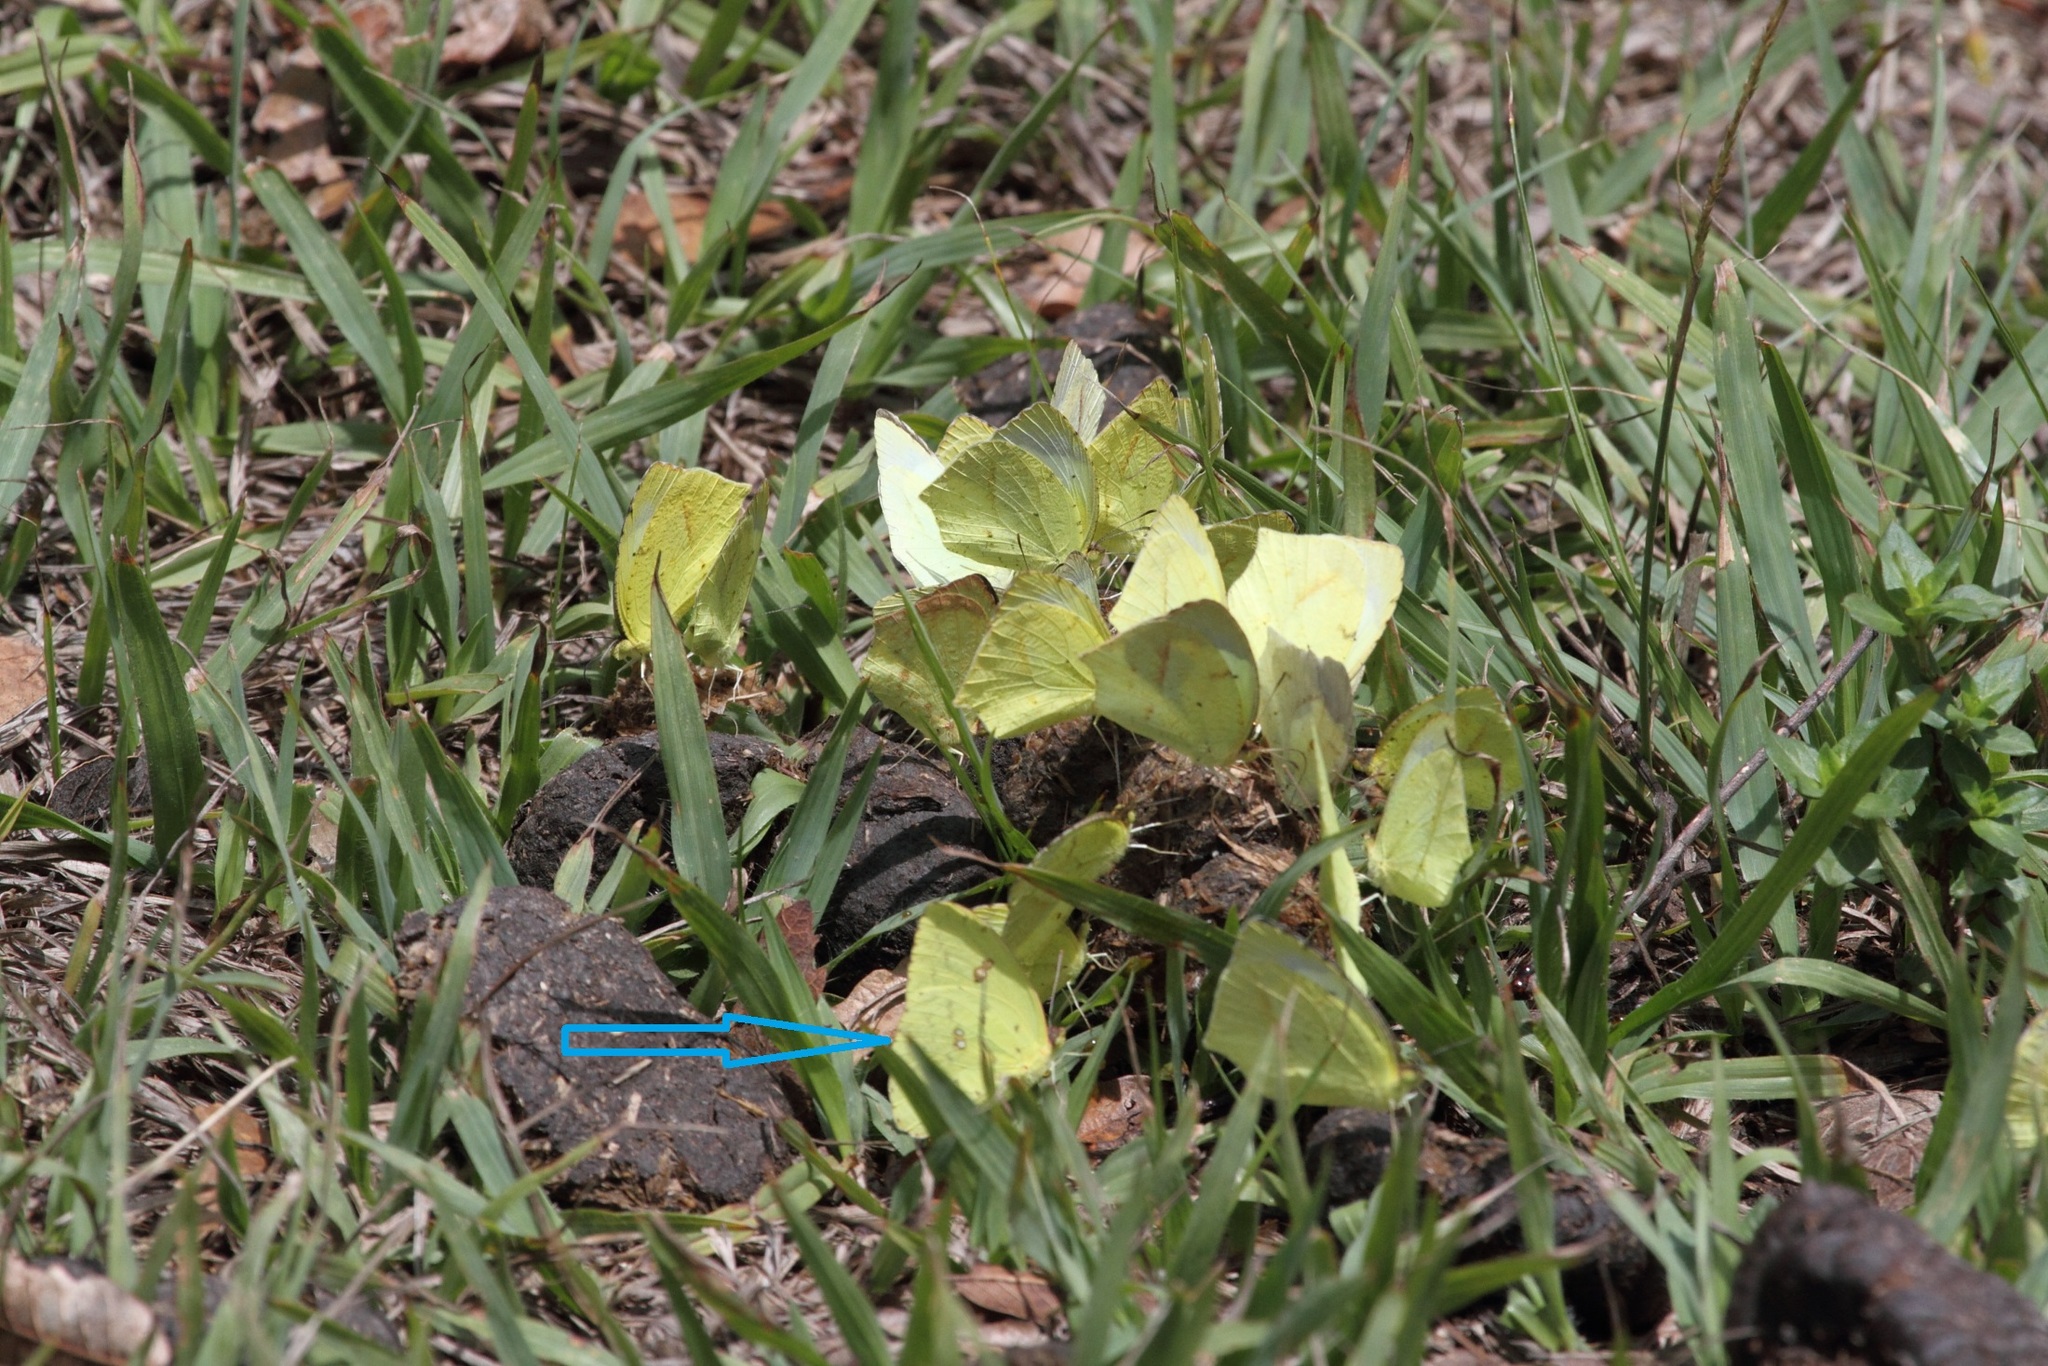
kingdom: Animalia
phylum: Arthropoda
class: Insecta
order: Lepidoptera
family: Pieridae
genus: Phoebis
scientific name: Phoebis marcellina
